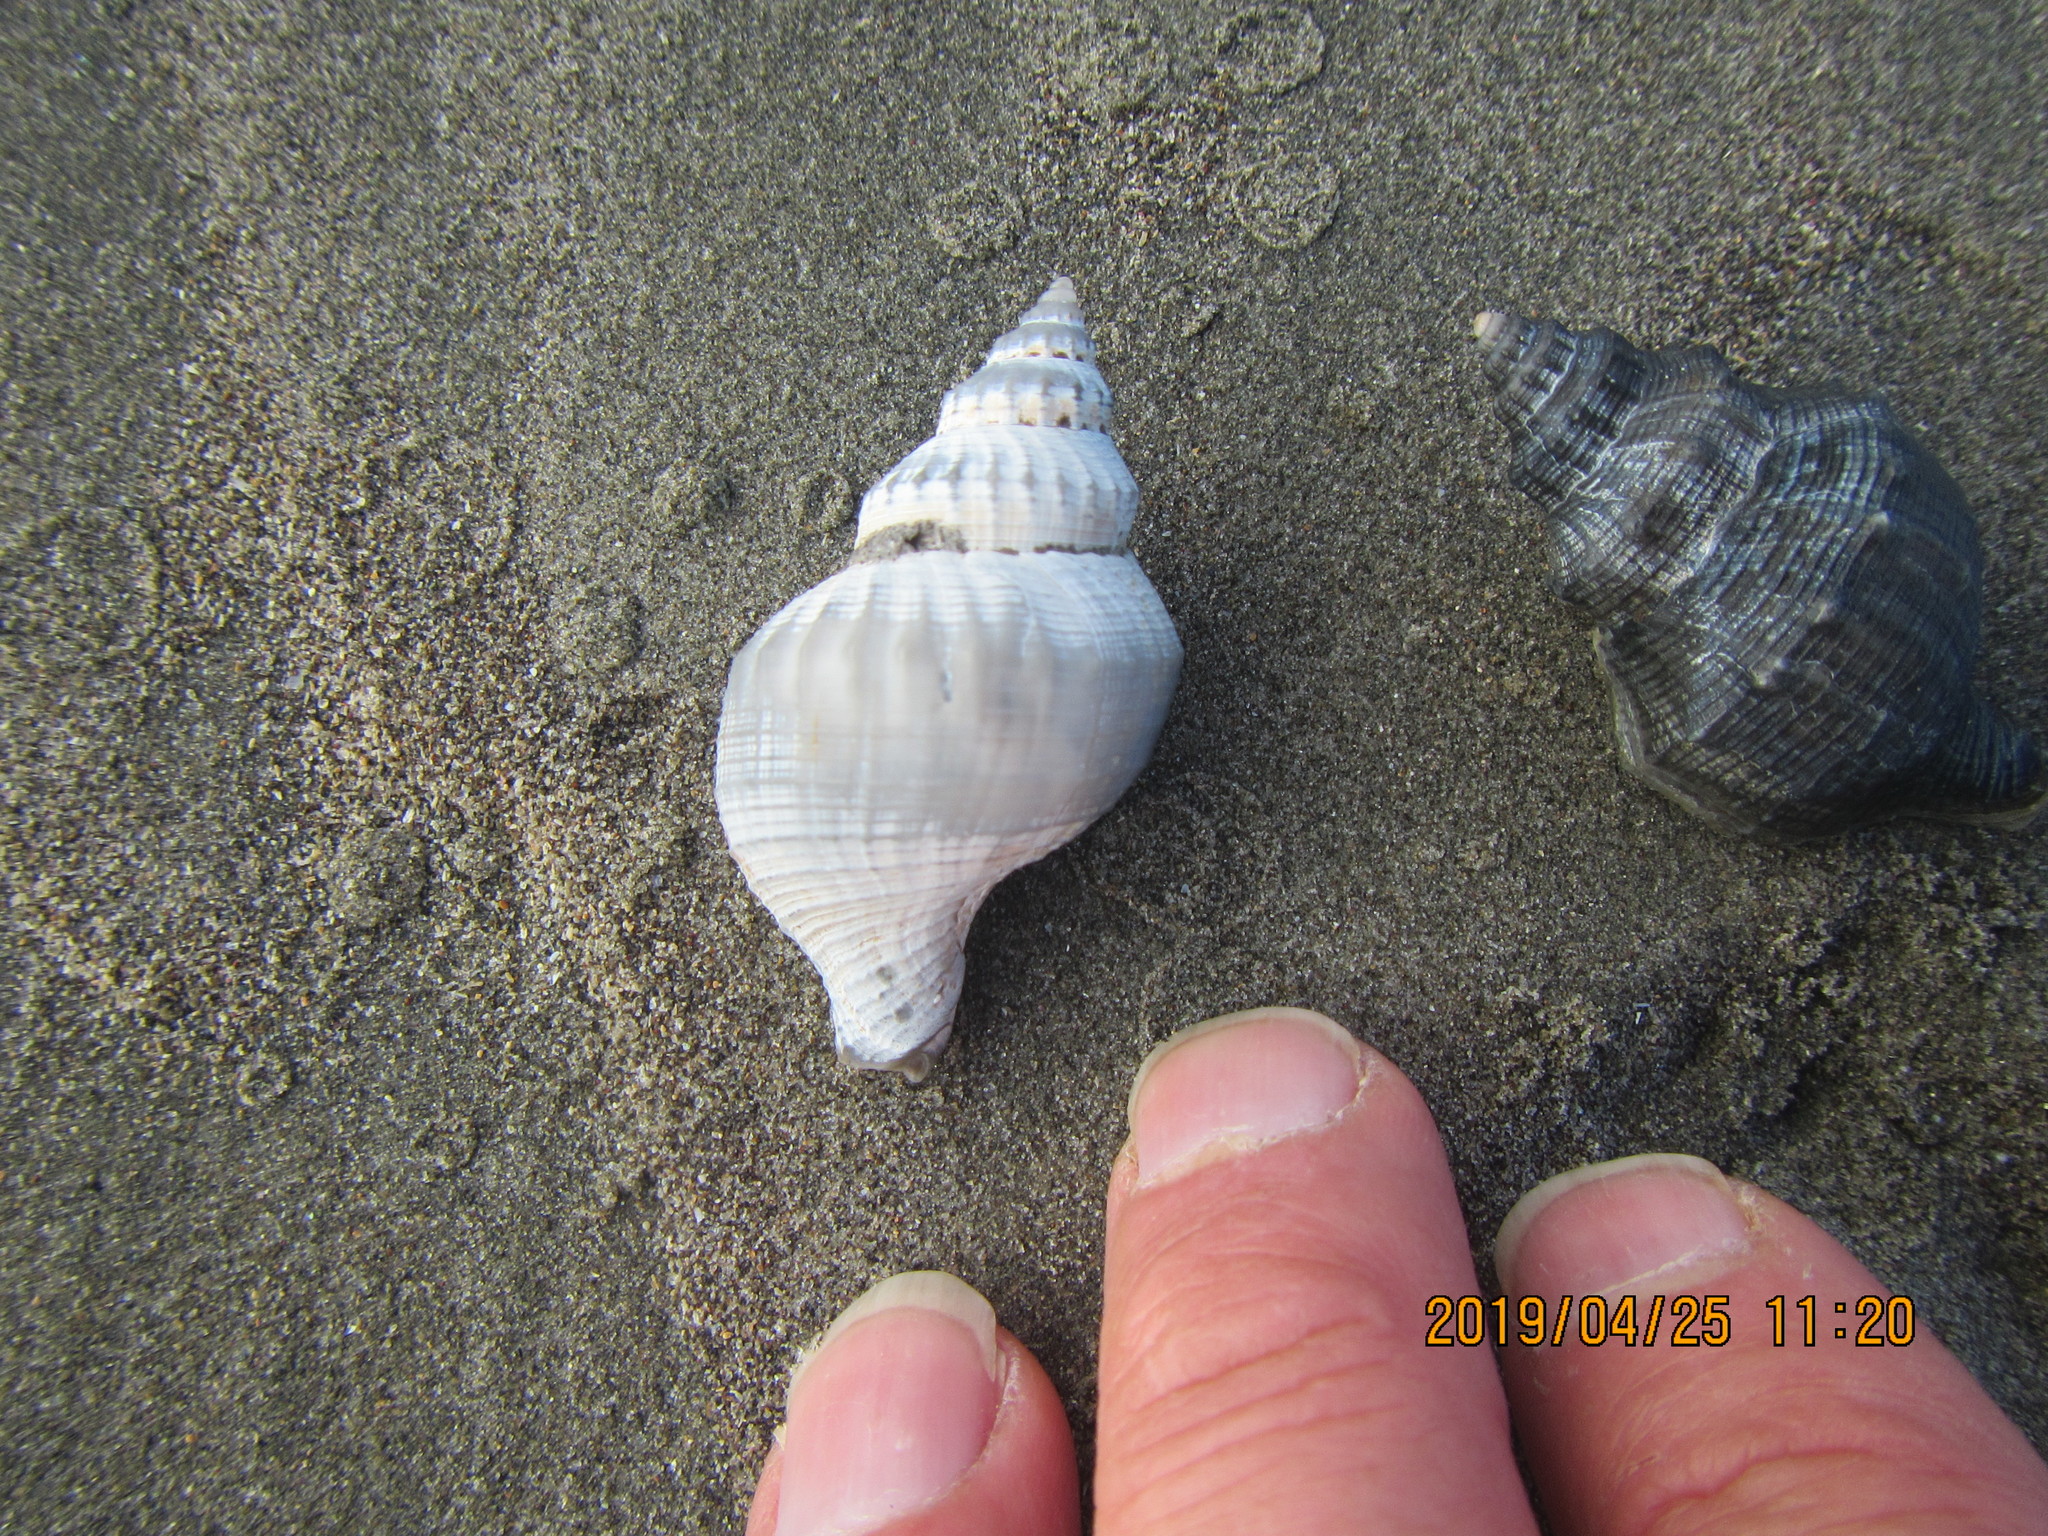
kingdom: Animalia
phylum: Mollusca
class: Gastropoda
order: Neogastropoda
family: Prosiphonidae
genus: Austrofusus
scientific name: Austrofusus glans
